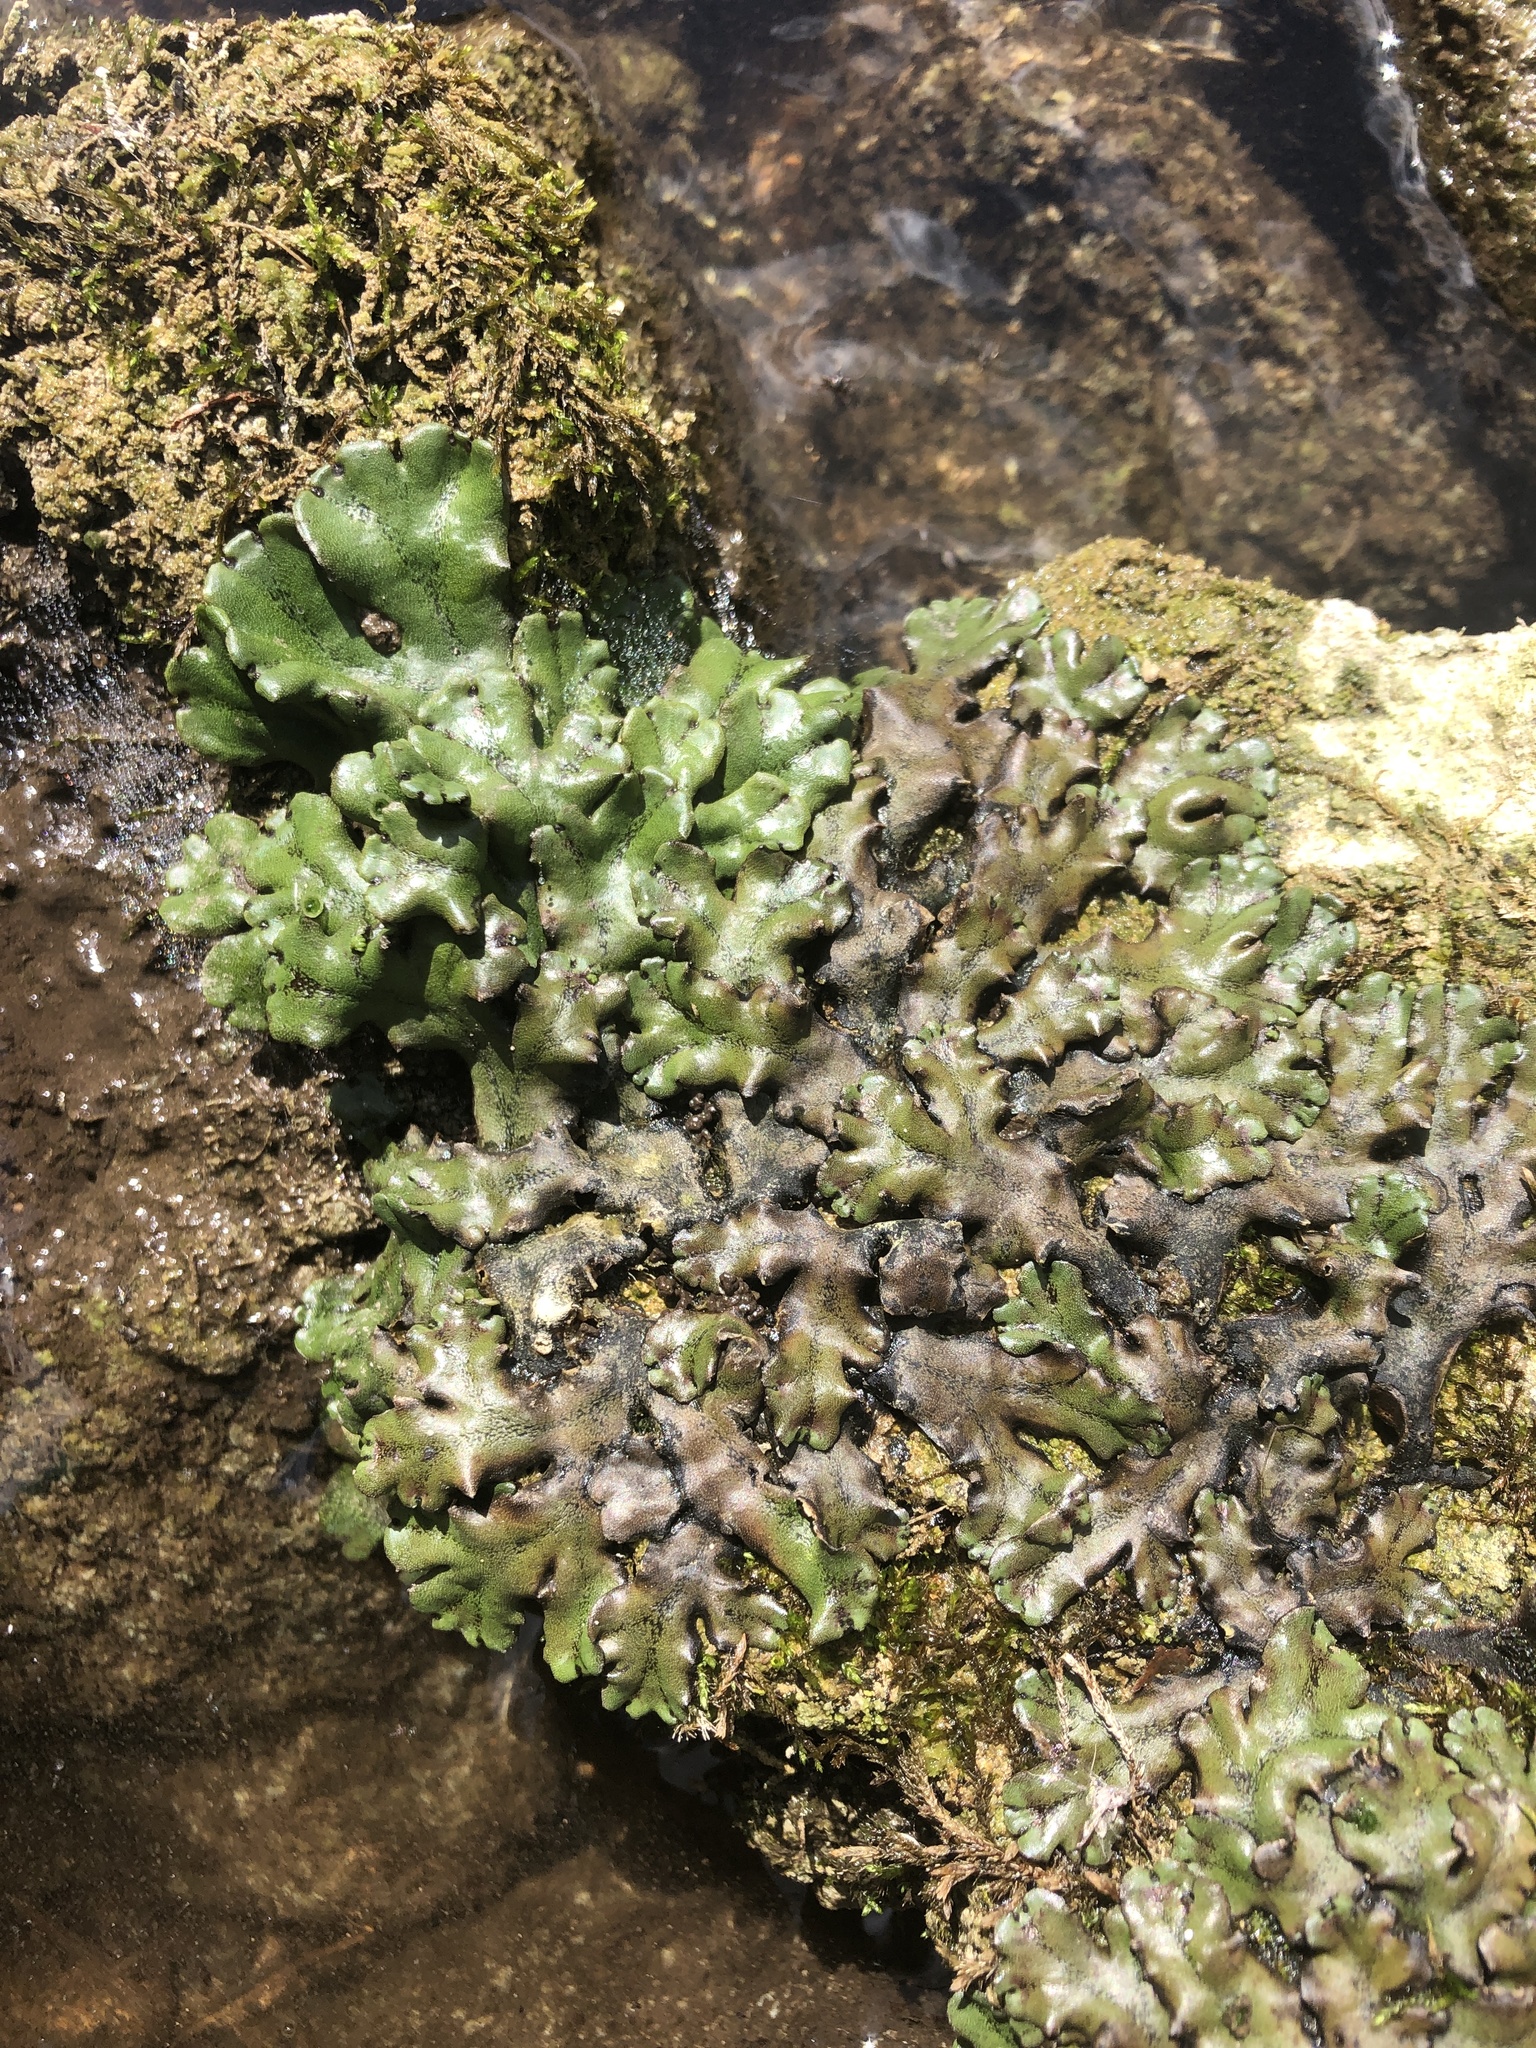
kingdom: Plantae
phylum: Marchantiophyta
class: Marchantiopsida
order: Marchantiales
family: Marchantiaceae
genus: Marchantia
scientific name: Marchantia polymorpha
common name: Common liverwort
